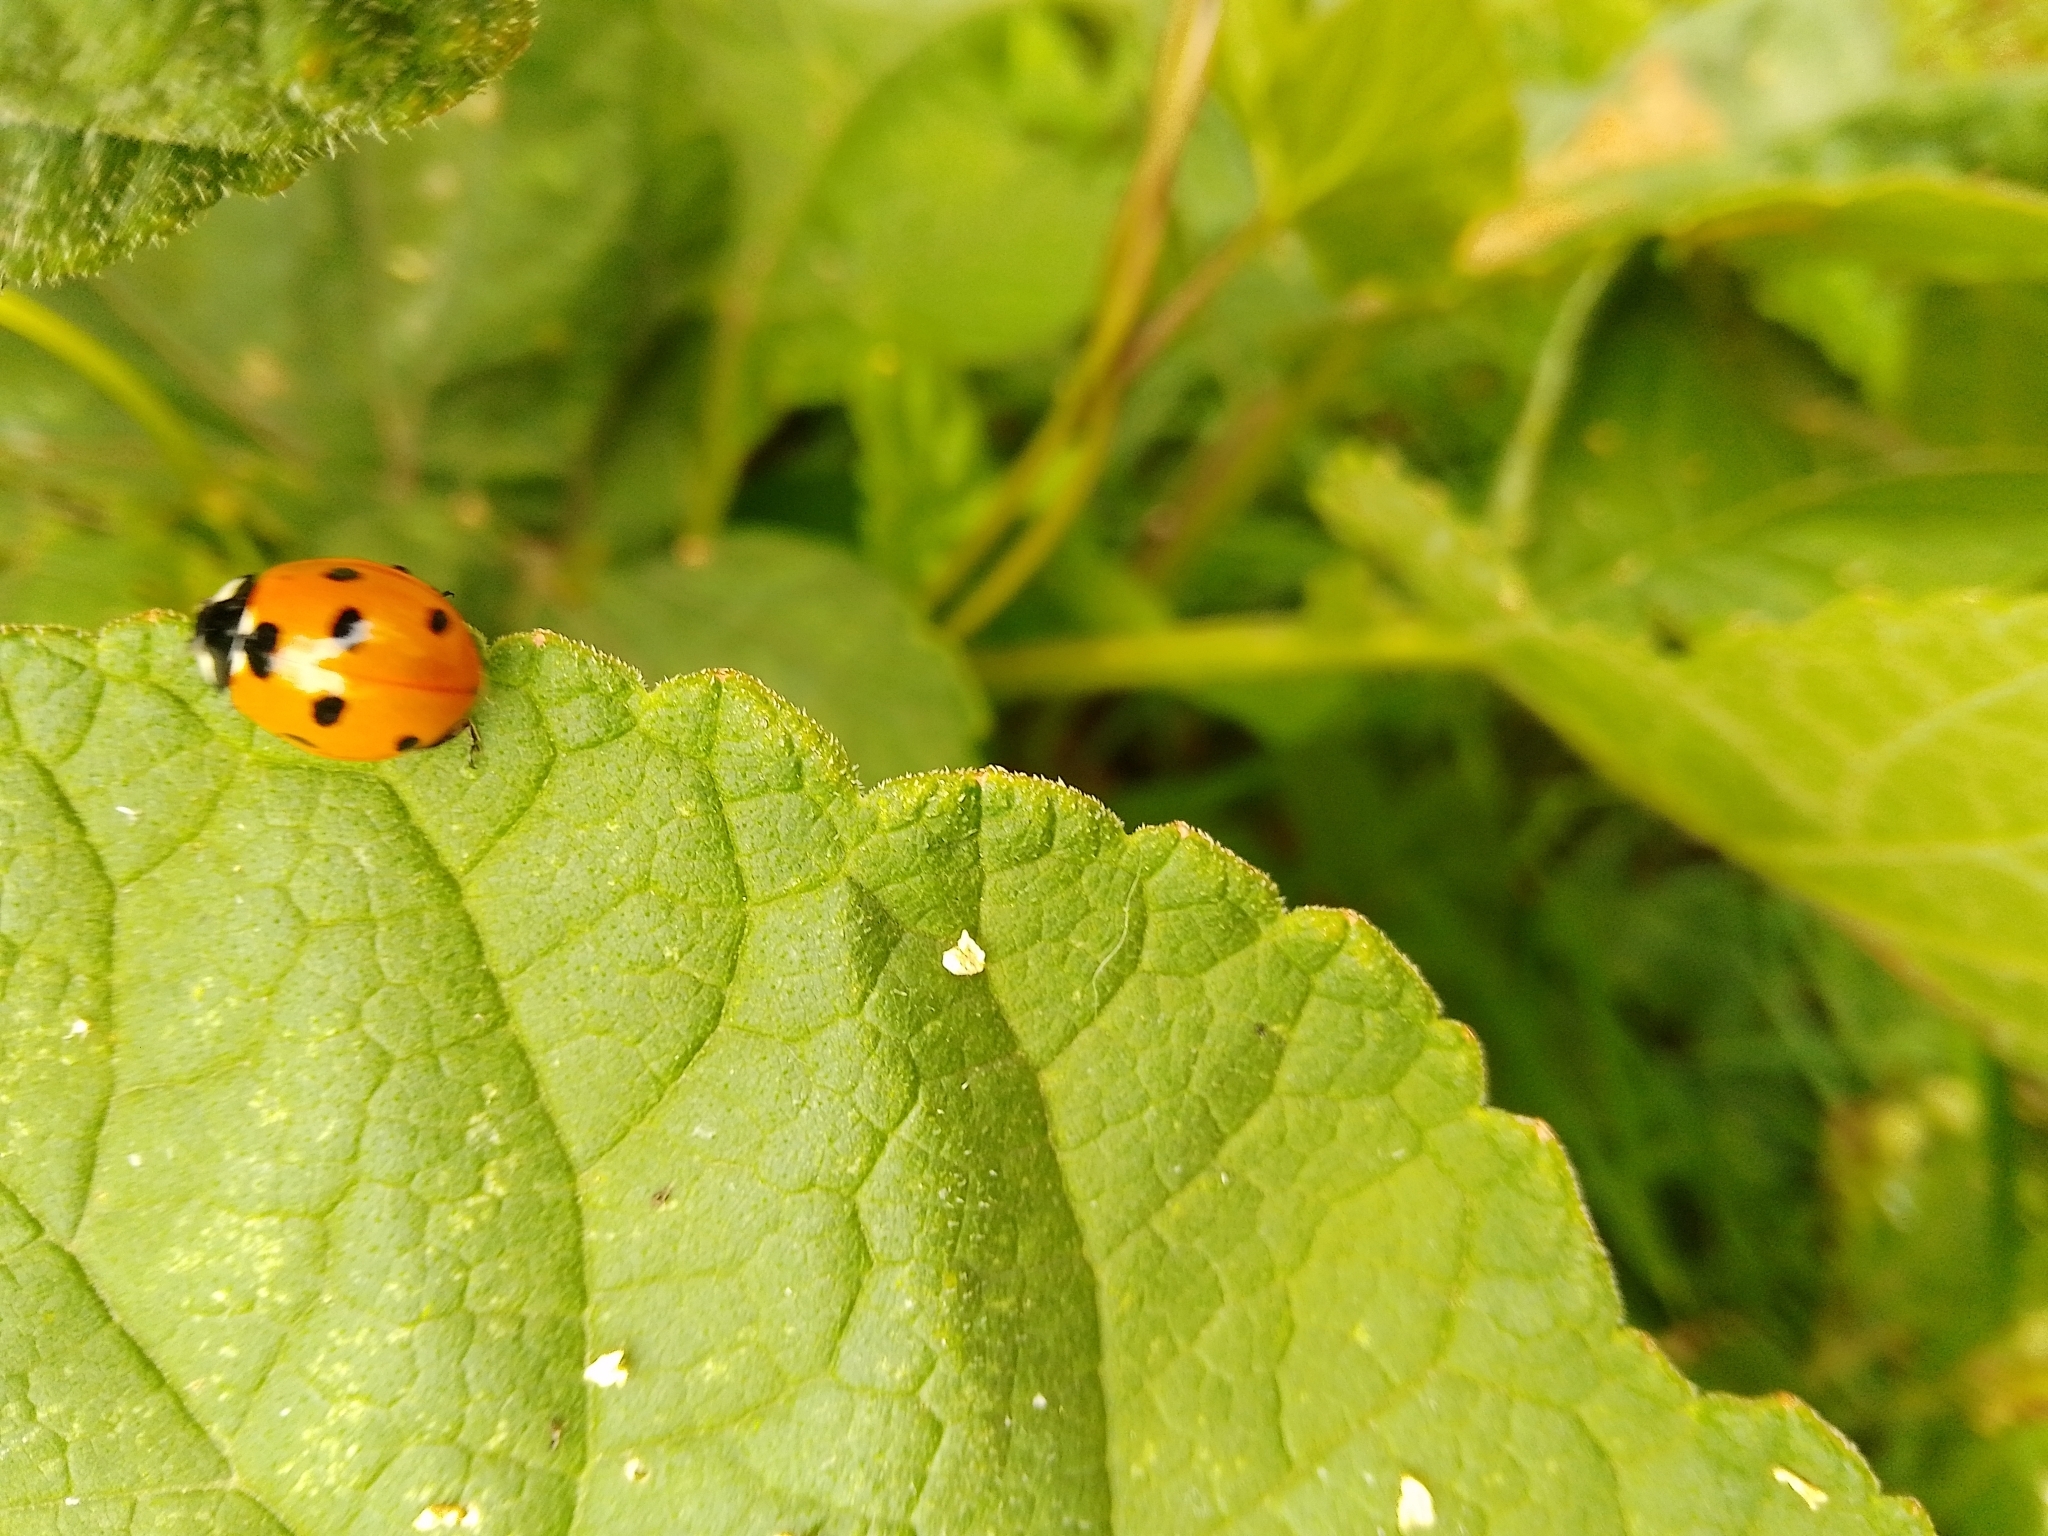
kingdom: Animalia
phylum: Arthropoda
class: Insecta
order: Coleoptera
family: Coccinellidae
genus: Coccinella
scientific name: Coccinella septempunctata
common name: Sevenspotted lady beetle
